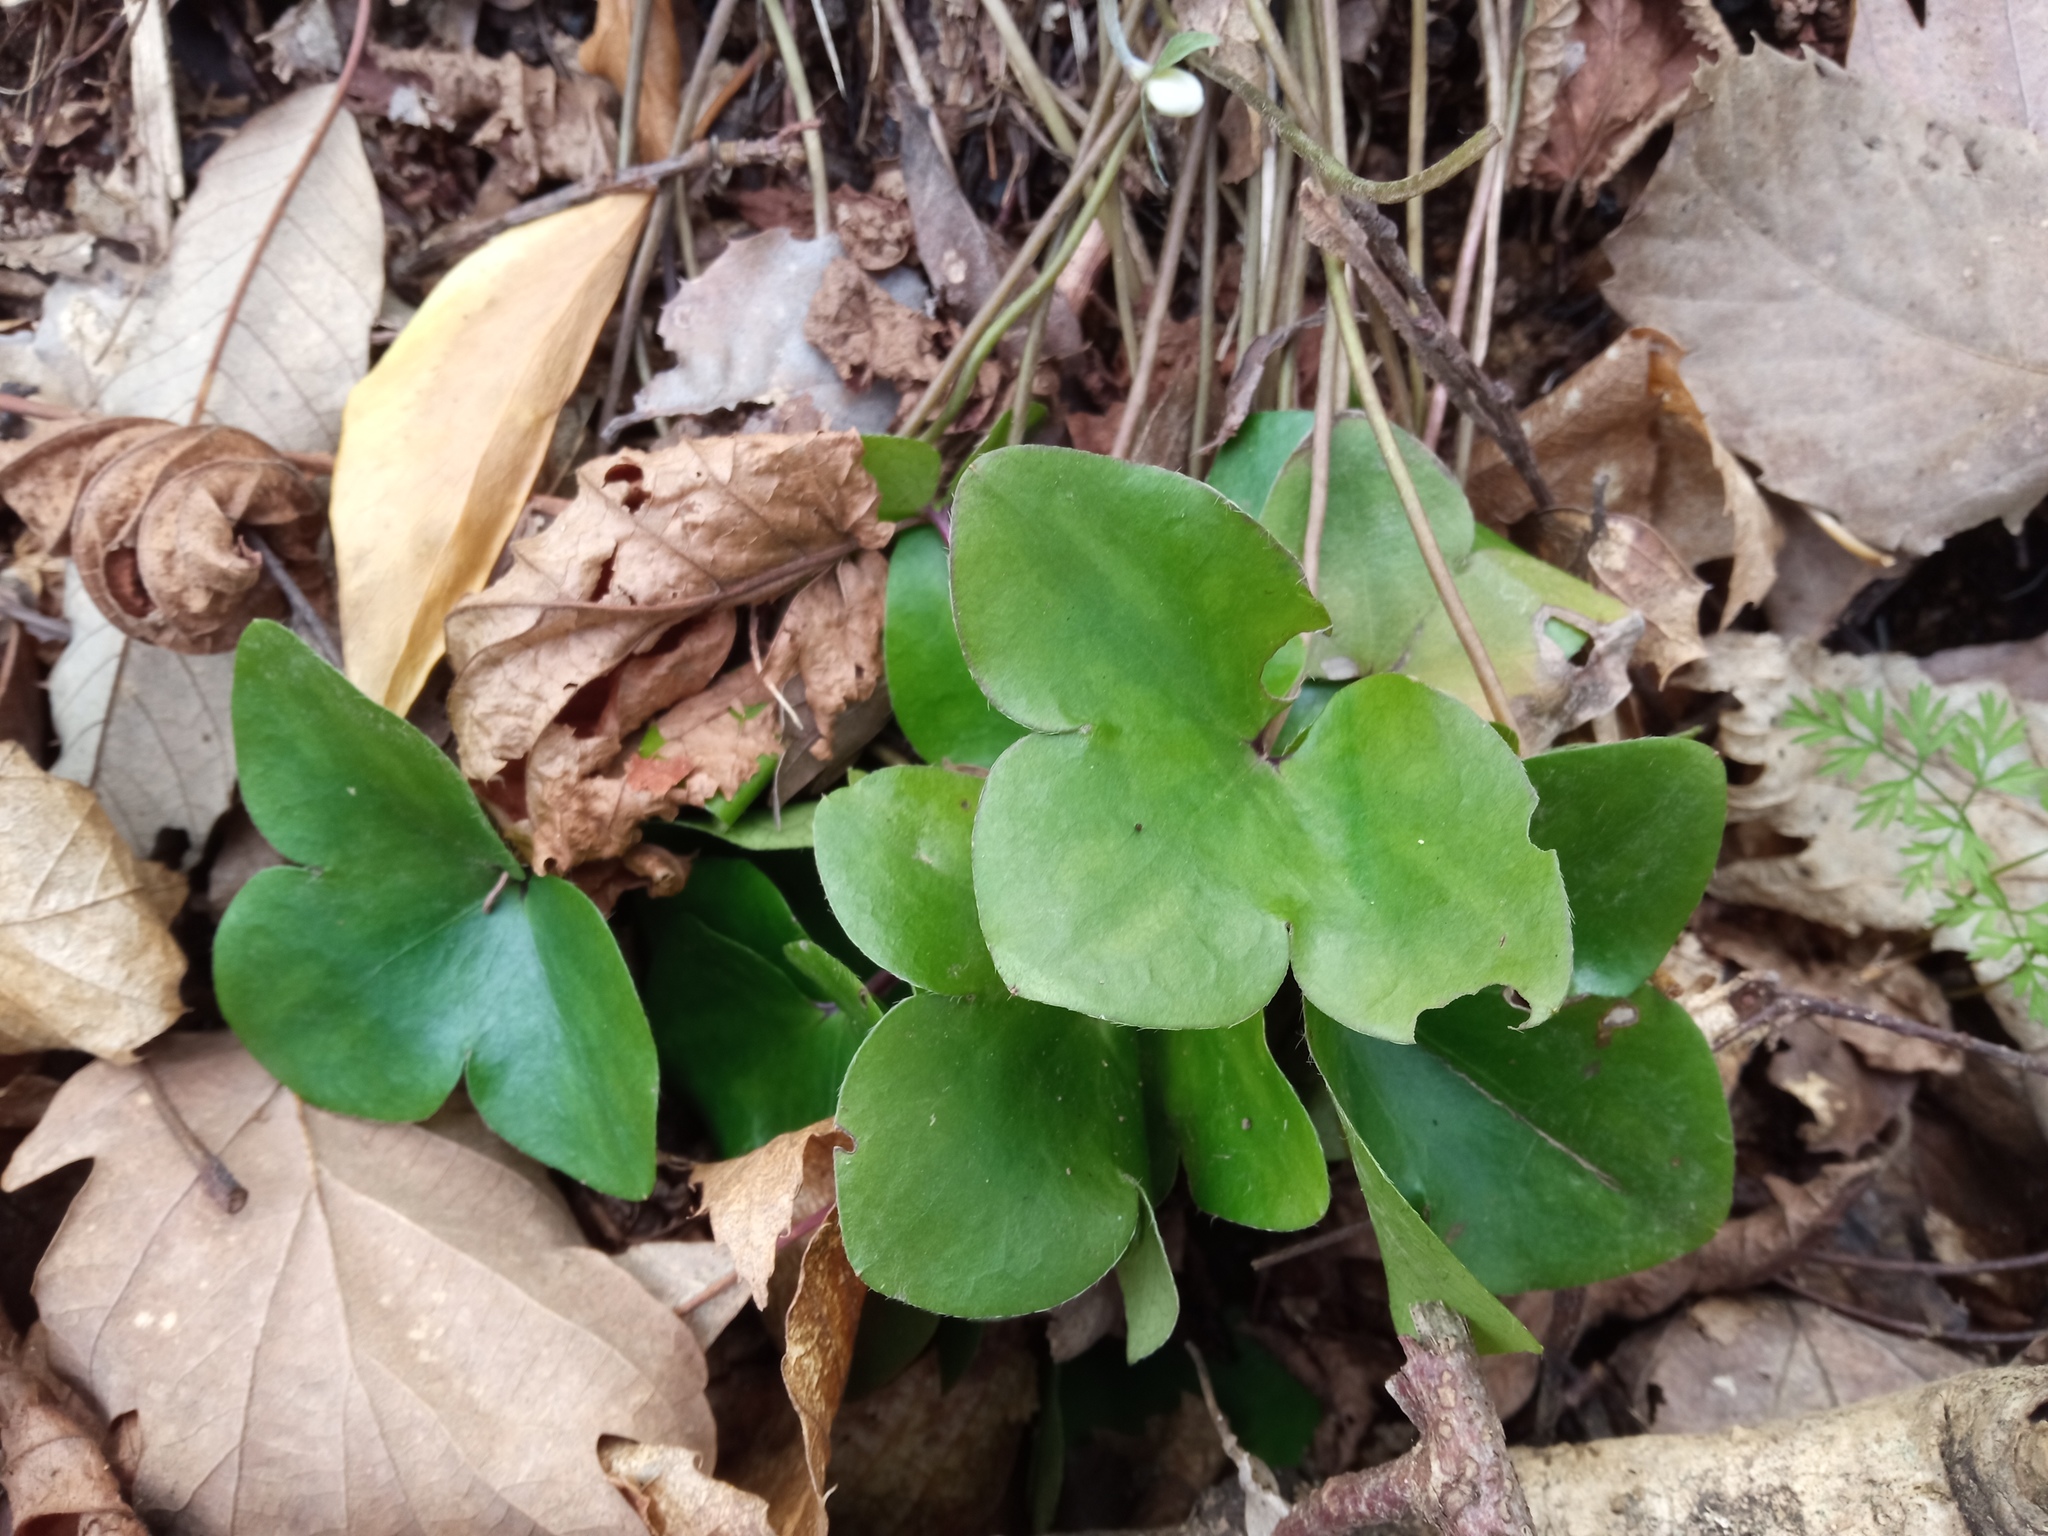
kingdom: Plantae
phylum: Tracheophyta
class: Magnoliopsida
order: Ranunculales
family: Ranunculaceae
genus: Hepatica
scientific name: Hepatica nobilis
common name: Liverleaf
